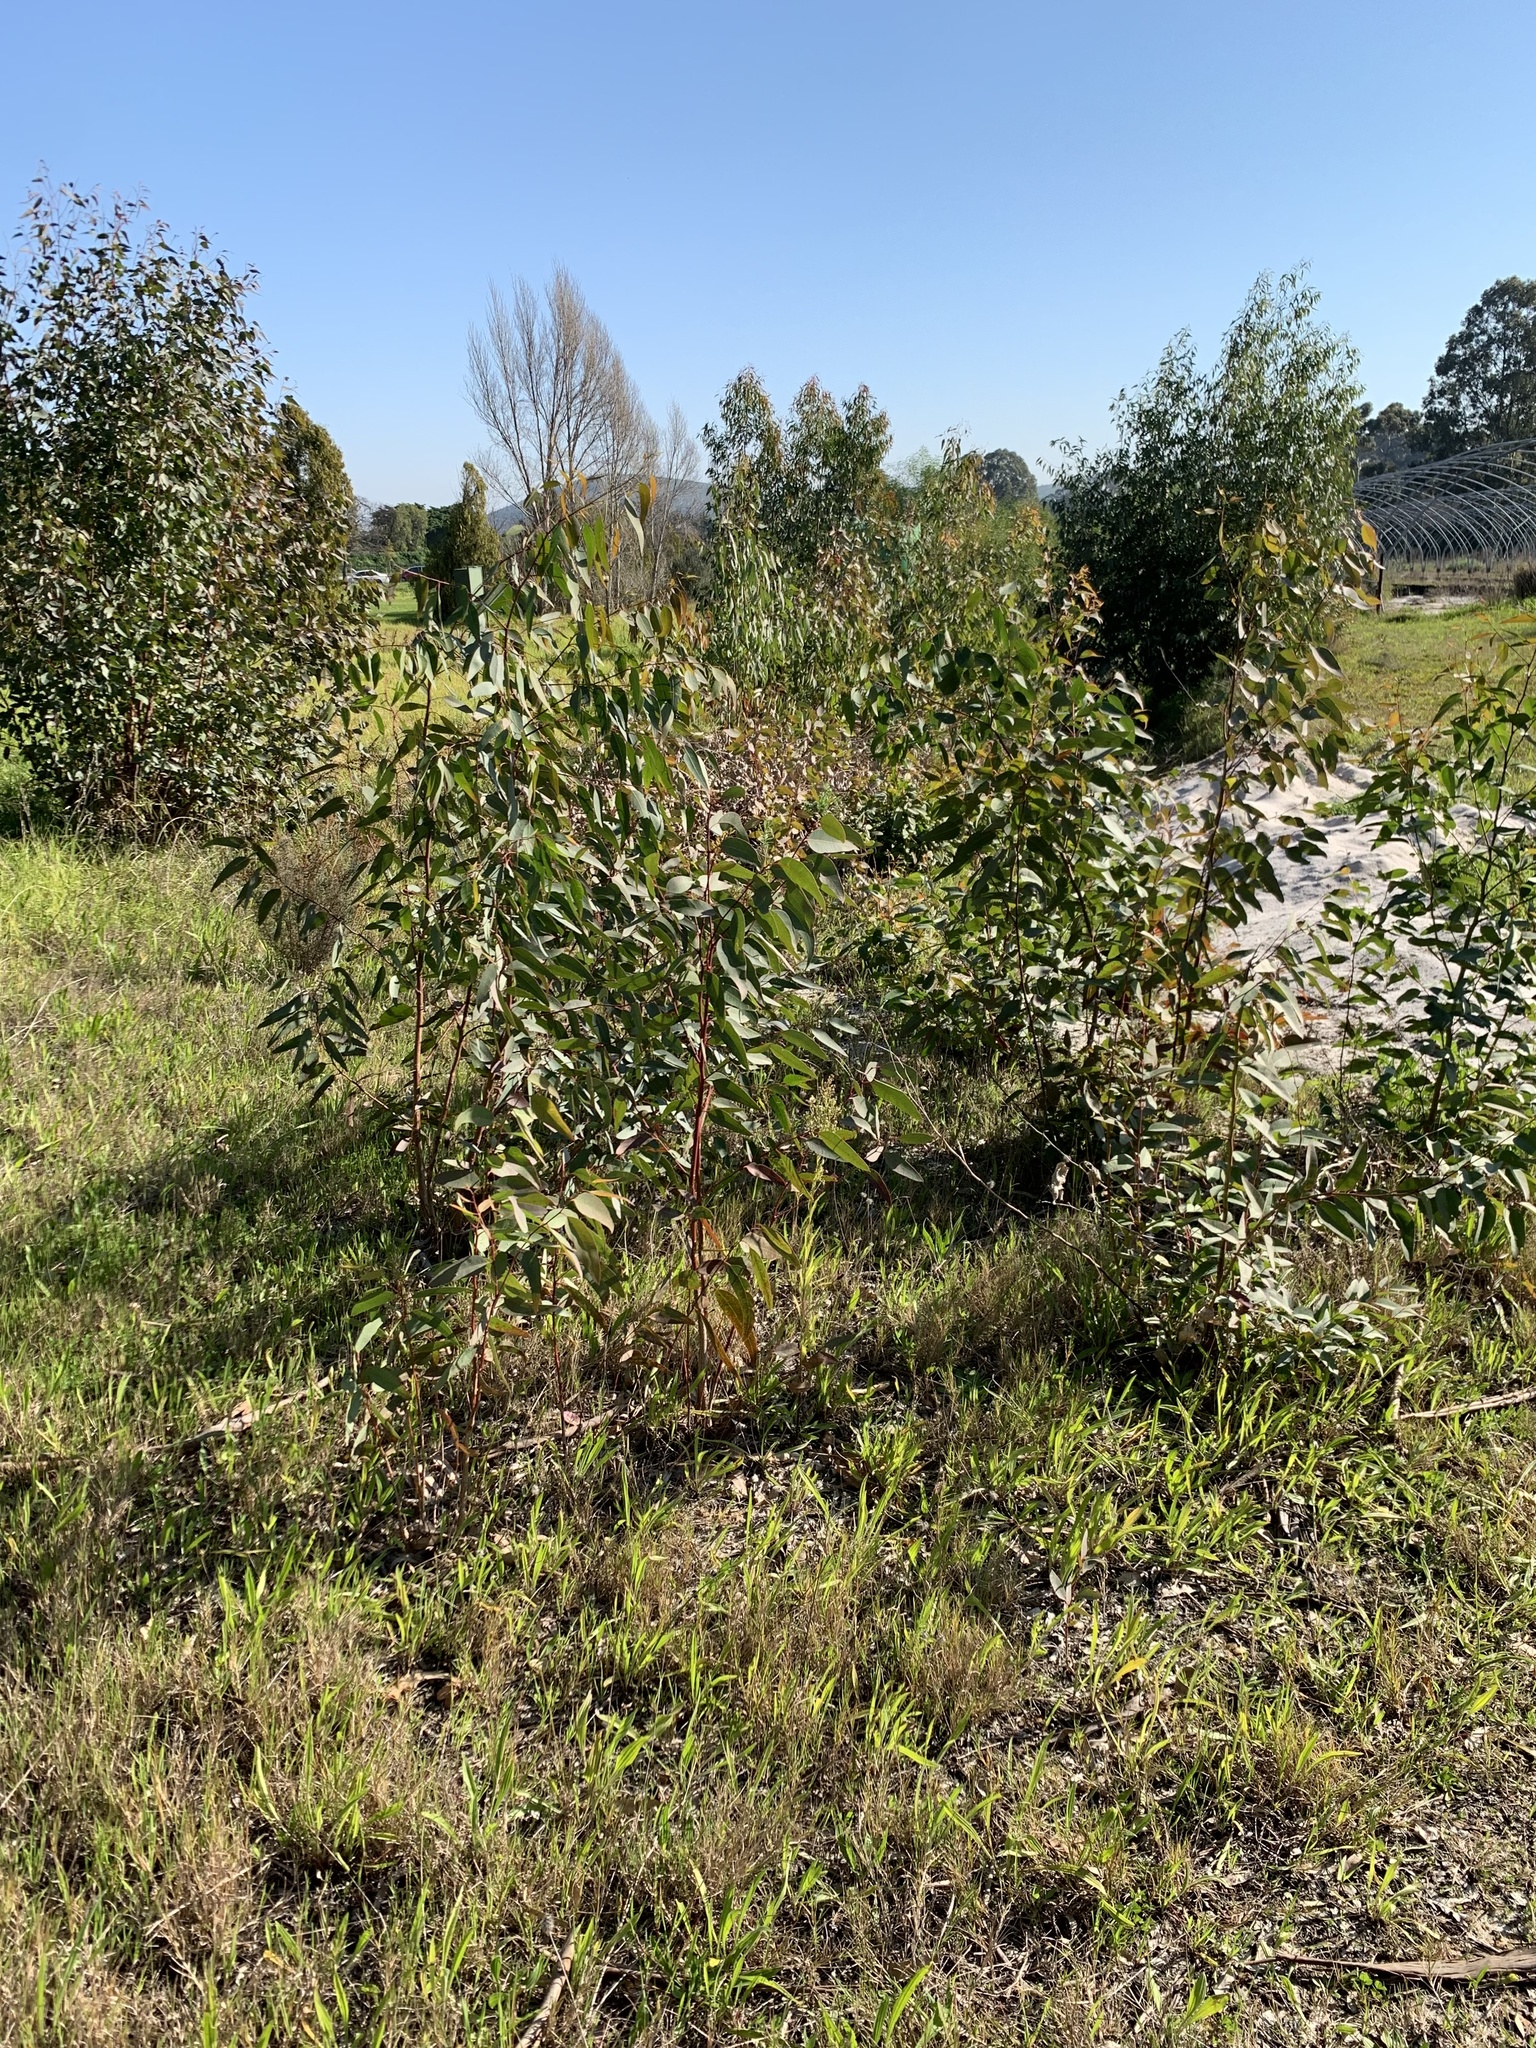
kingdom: Plantae
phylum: Tracheophyta
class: Magnoliopsida
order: Myrtales
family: Myrtaceae
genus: Eucalyptus
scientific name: Eucalyptus camaldulensis
